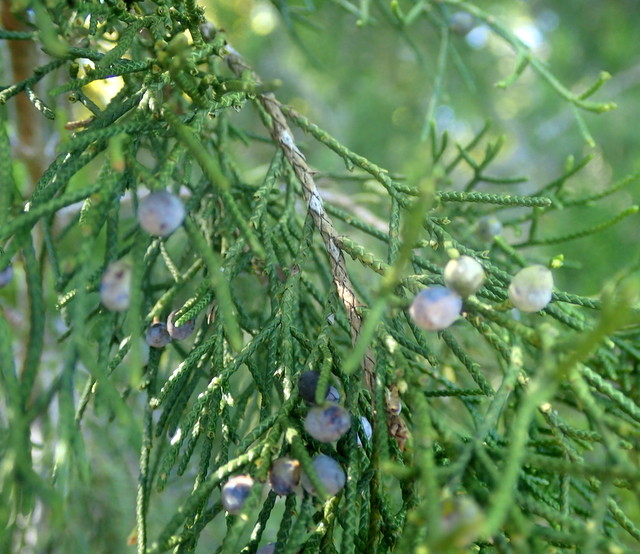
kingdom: Plantae
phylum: Tracheophyta
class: Pinopsida
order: Pinales
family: Cupressaceae
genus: Juniperus
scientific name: Juniperus virginiana
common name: Red juniper
